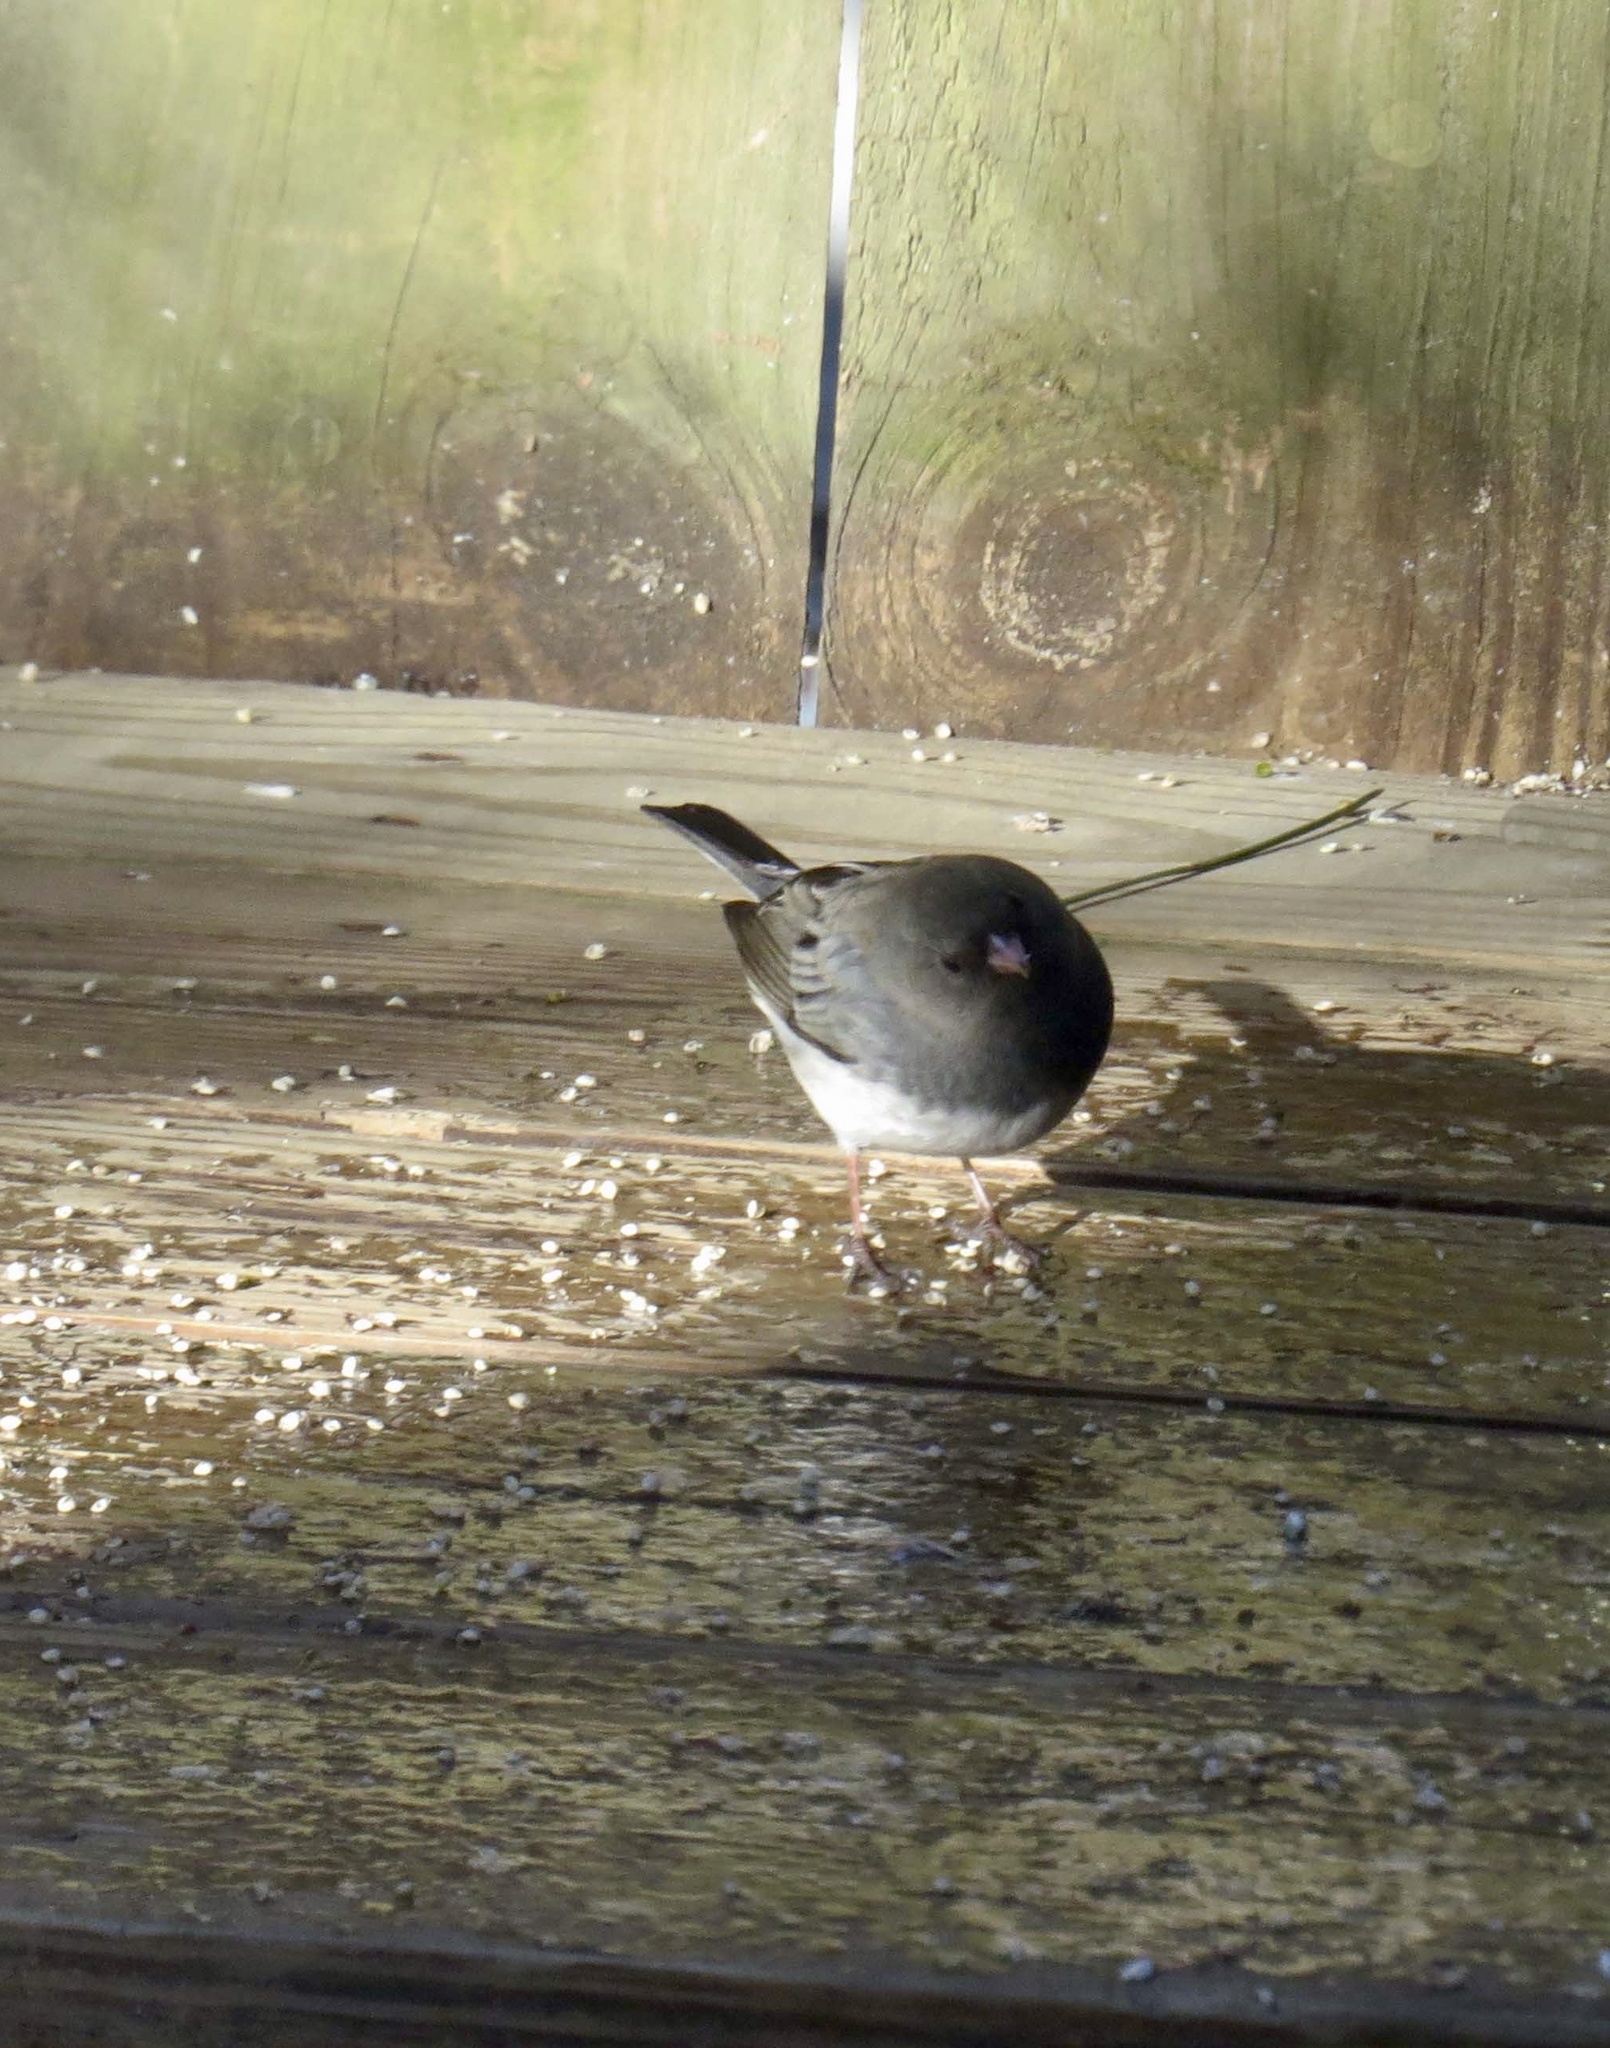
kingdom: Animalia
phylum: Chordata
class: Aves
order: Passeriformes
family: Passerellidae
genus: Junco
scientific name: Junco hyemalis
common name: Dark-eyed junco
